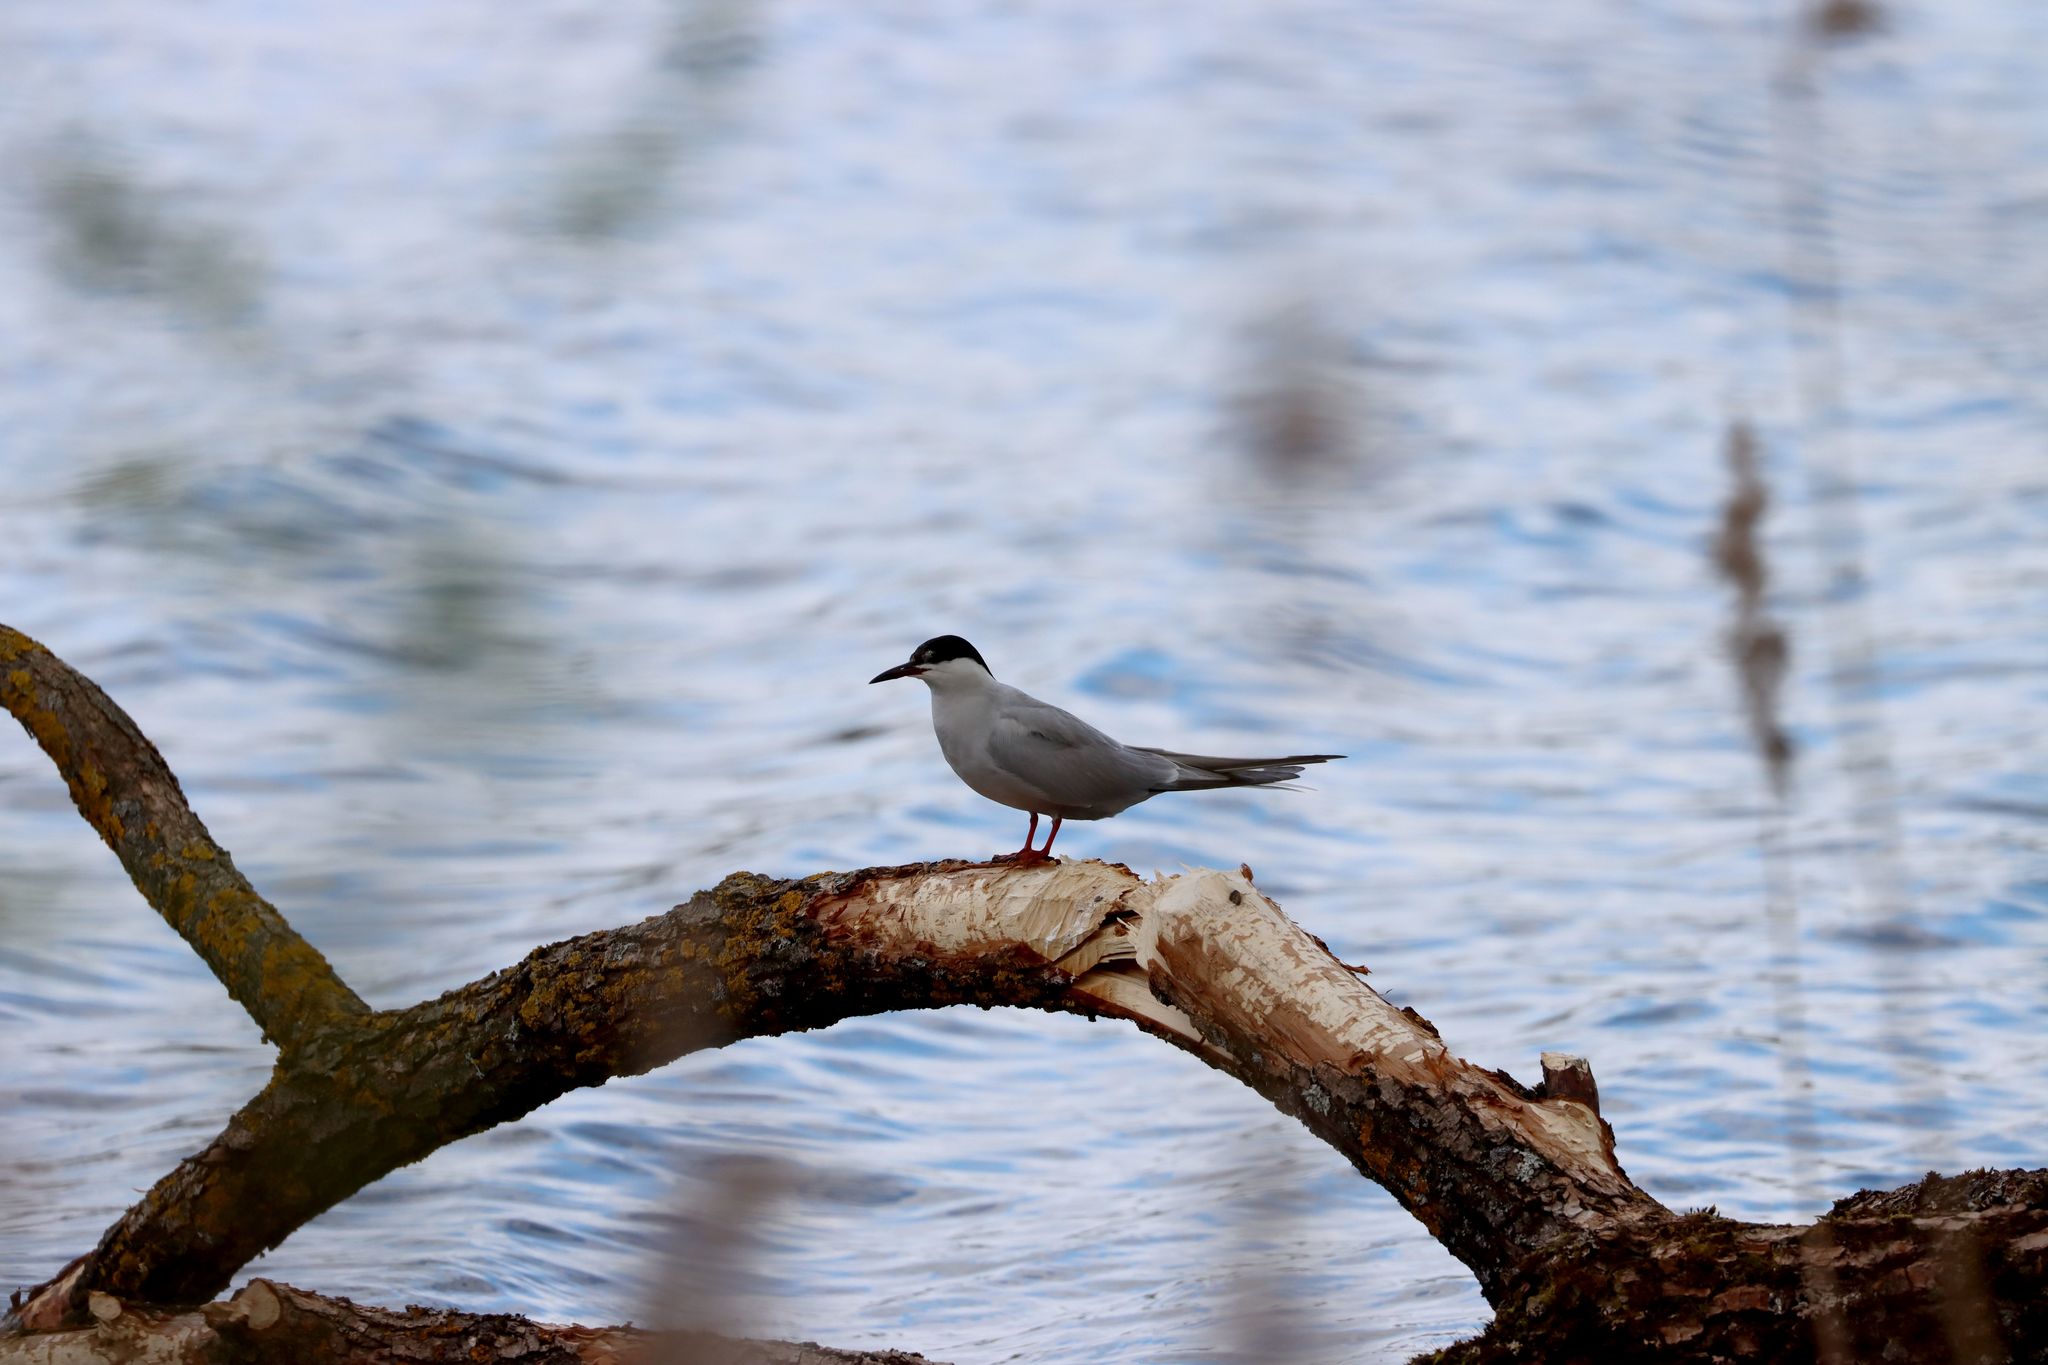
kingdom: Animalia
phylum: Chordata
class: Aves
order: Charadriiformes
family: Laridae
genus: Sterna
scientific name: Sterna hirundo
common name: Common tern
